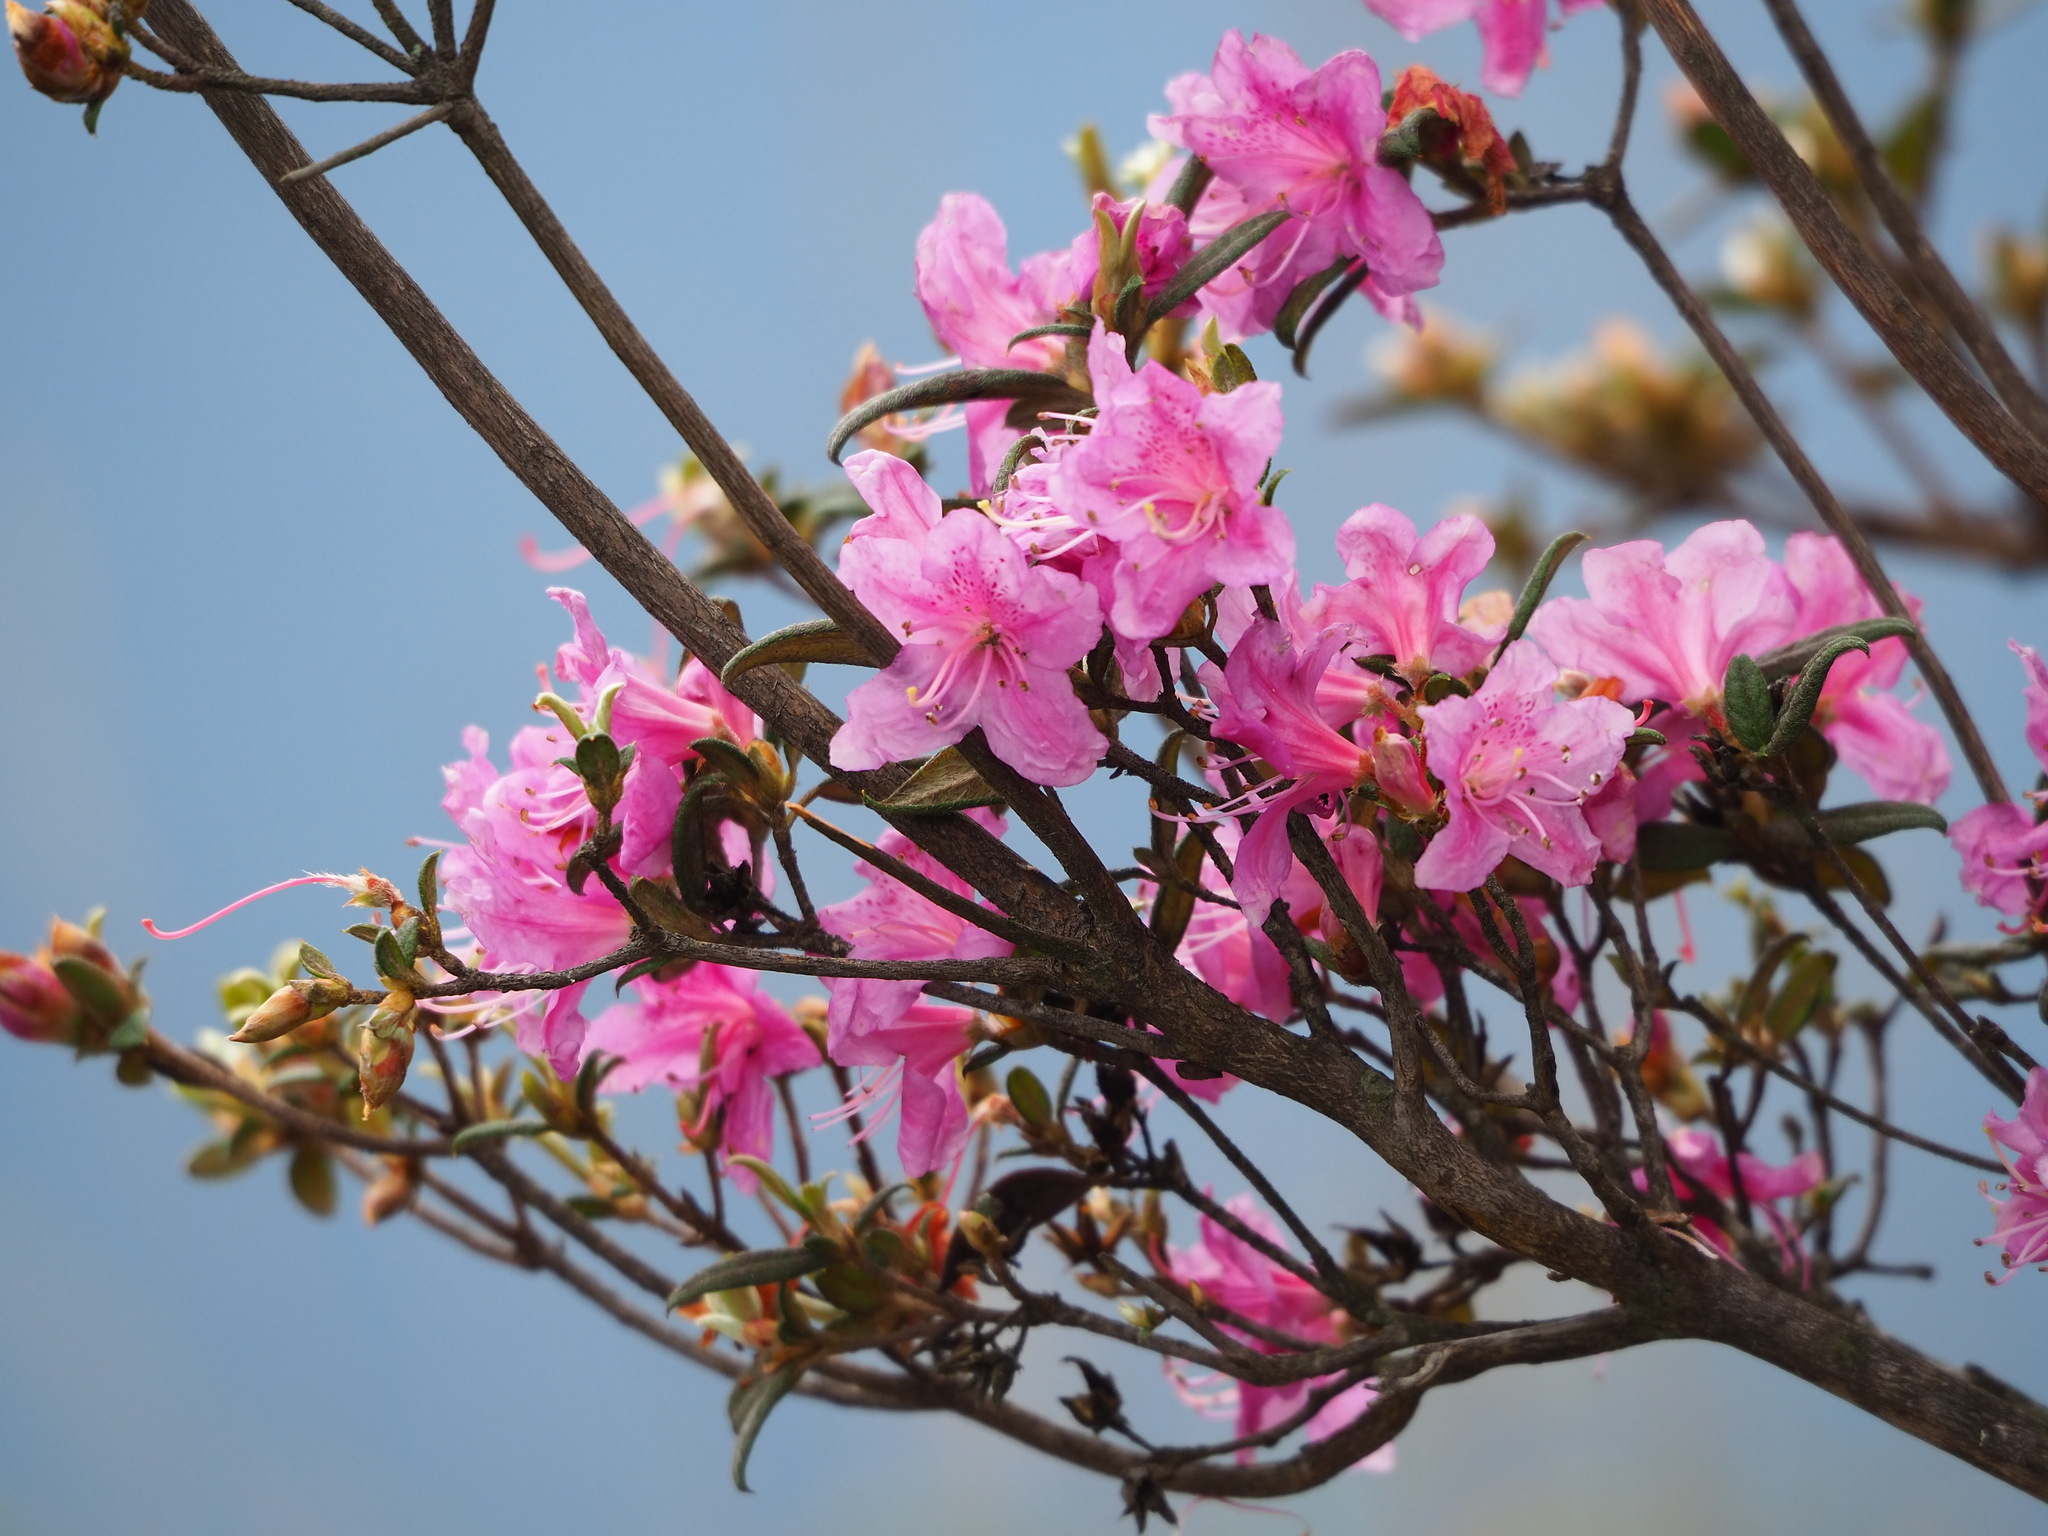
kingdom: Plantae
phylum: Tracheophyta
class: Magnoliopsida
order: Ericales
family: Ericaceae
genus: Rhododendron
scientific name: Rhododendron rubropilosum
